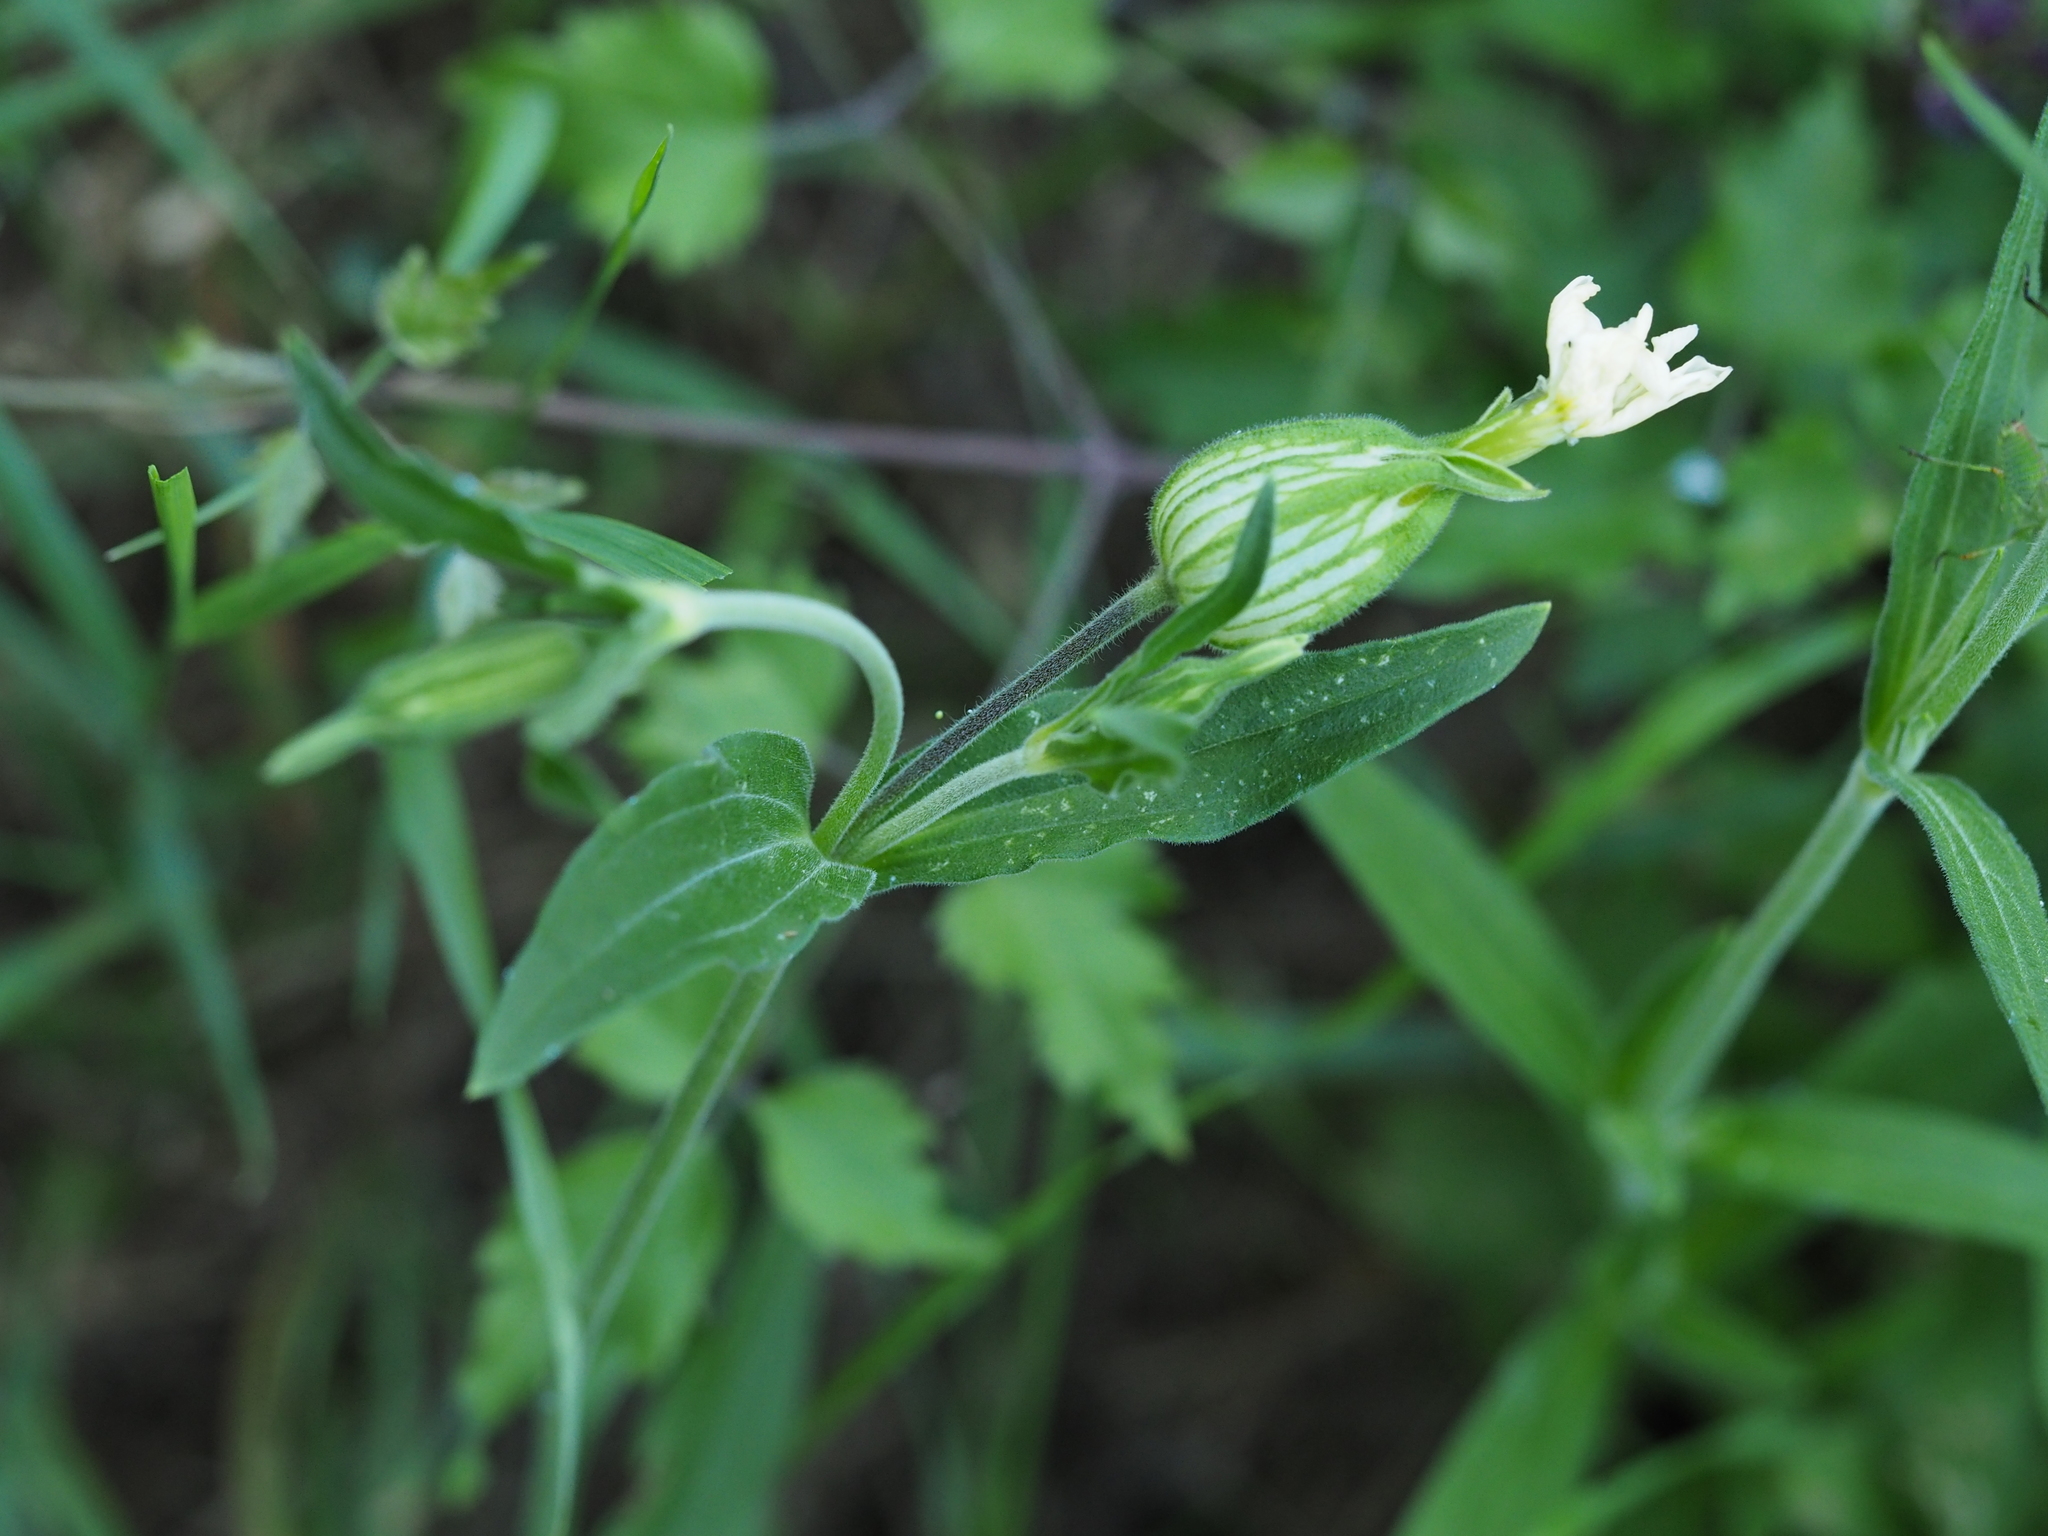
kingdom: Plantae
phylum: Tracheophyta
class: Magnoliopsida
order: Caryophyllales
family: Caryophyllaceae
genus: Silene
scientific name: Silene latifolia
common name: White campion
